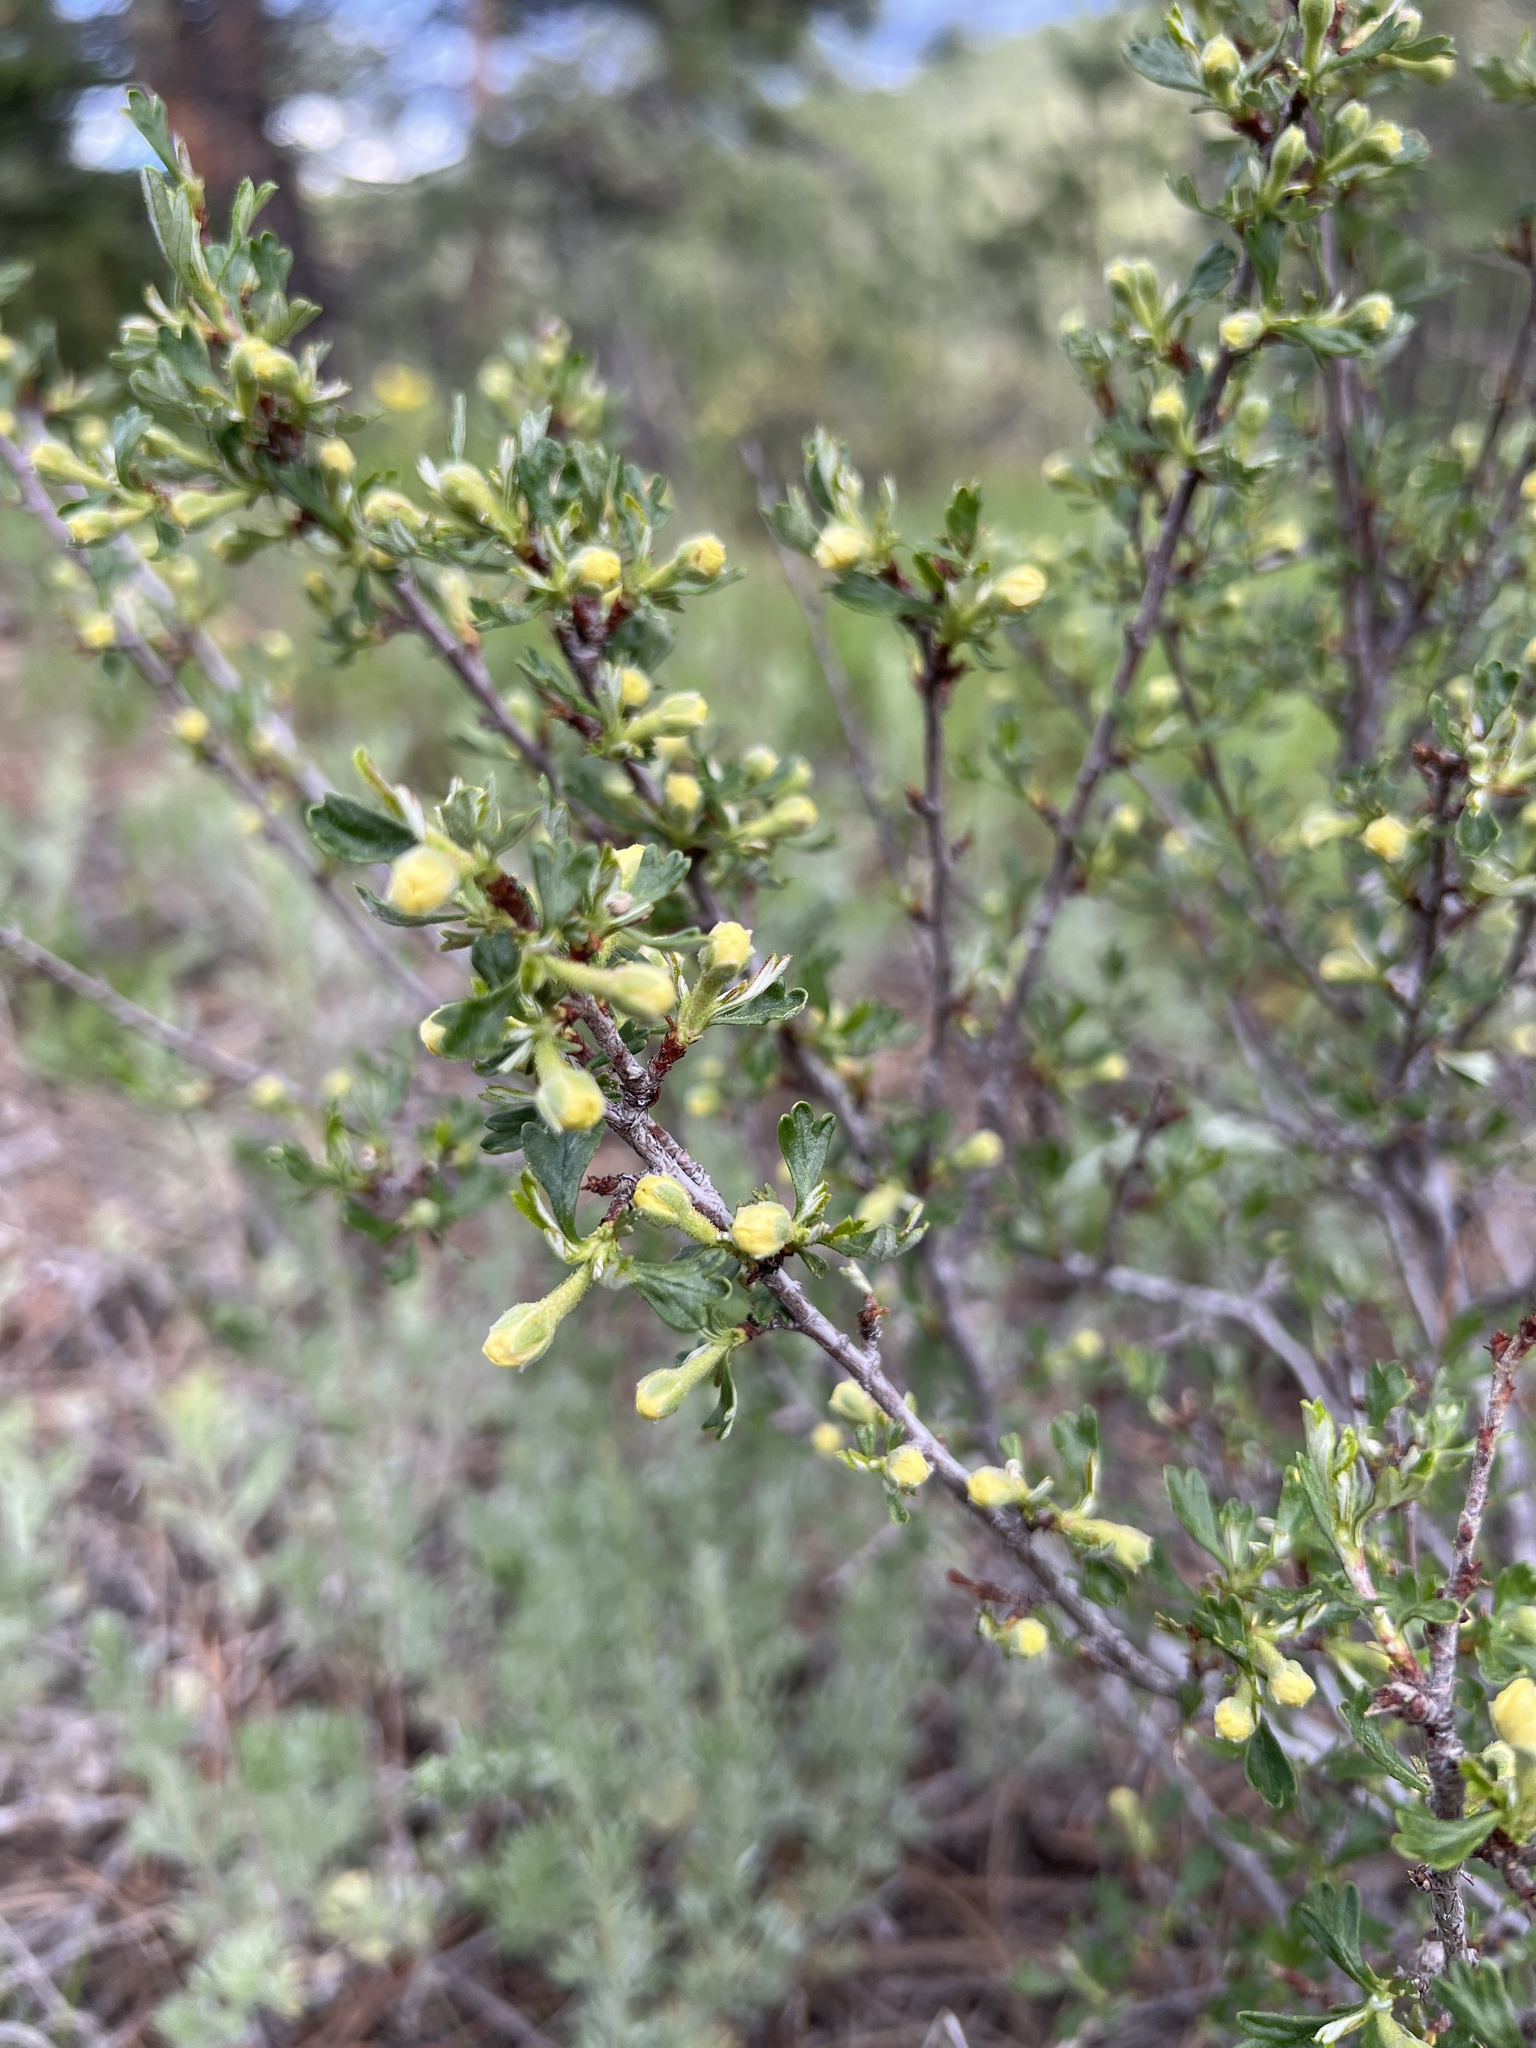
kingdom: Plantae
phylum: Tracheophyta
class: Magnoliopsida
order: Rosales
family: Rosaceae
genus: Purshia
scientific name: Purshia tridentata
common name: Antelope bitterbrush
